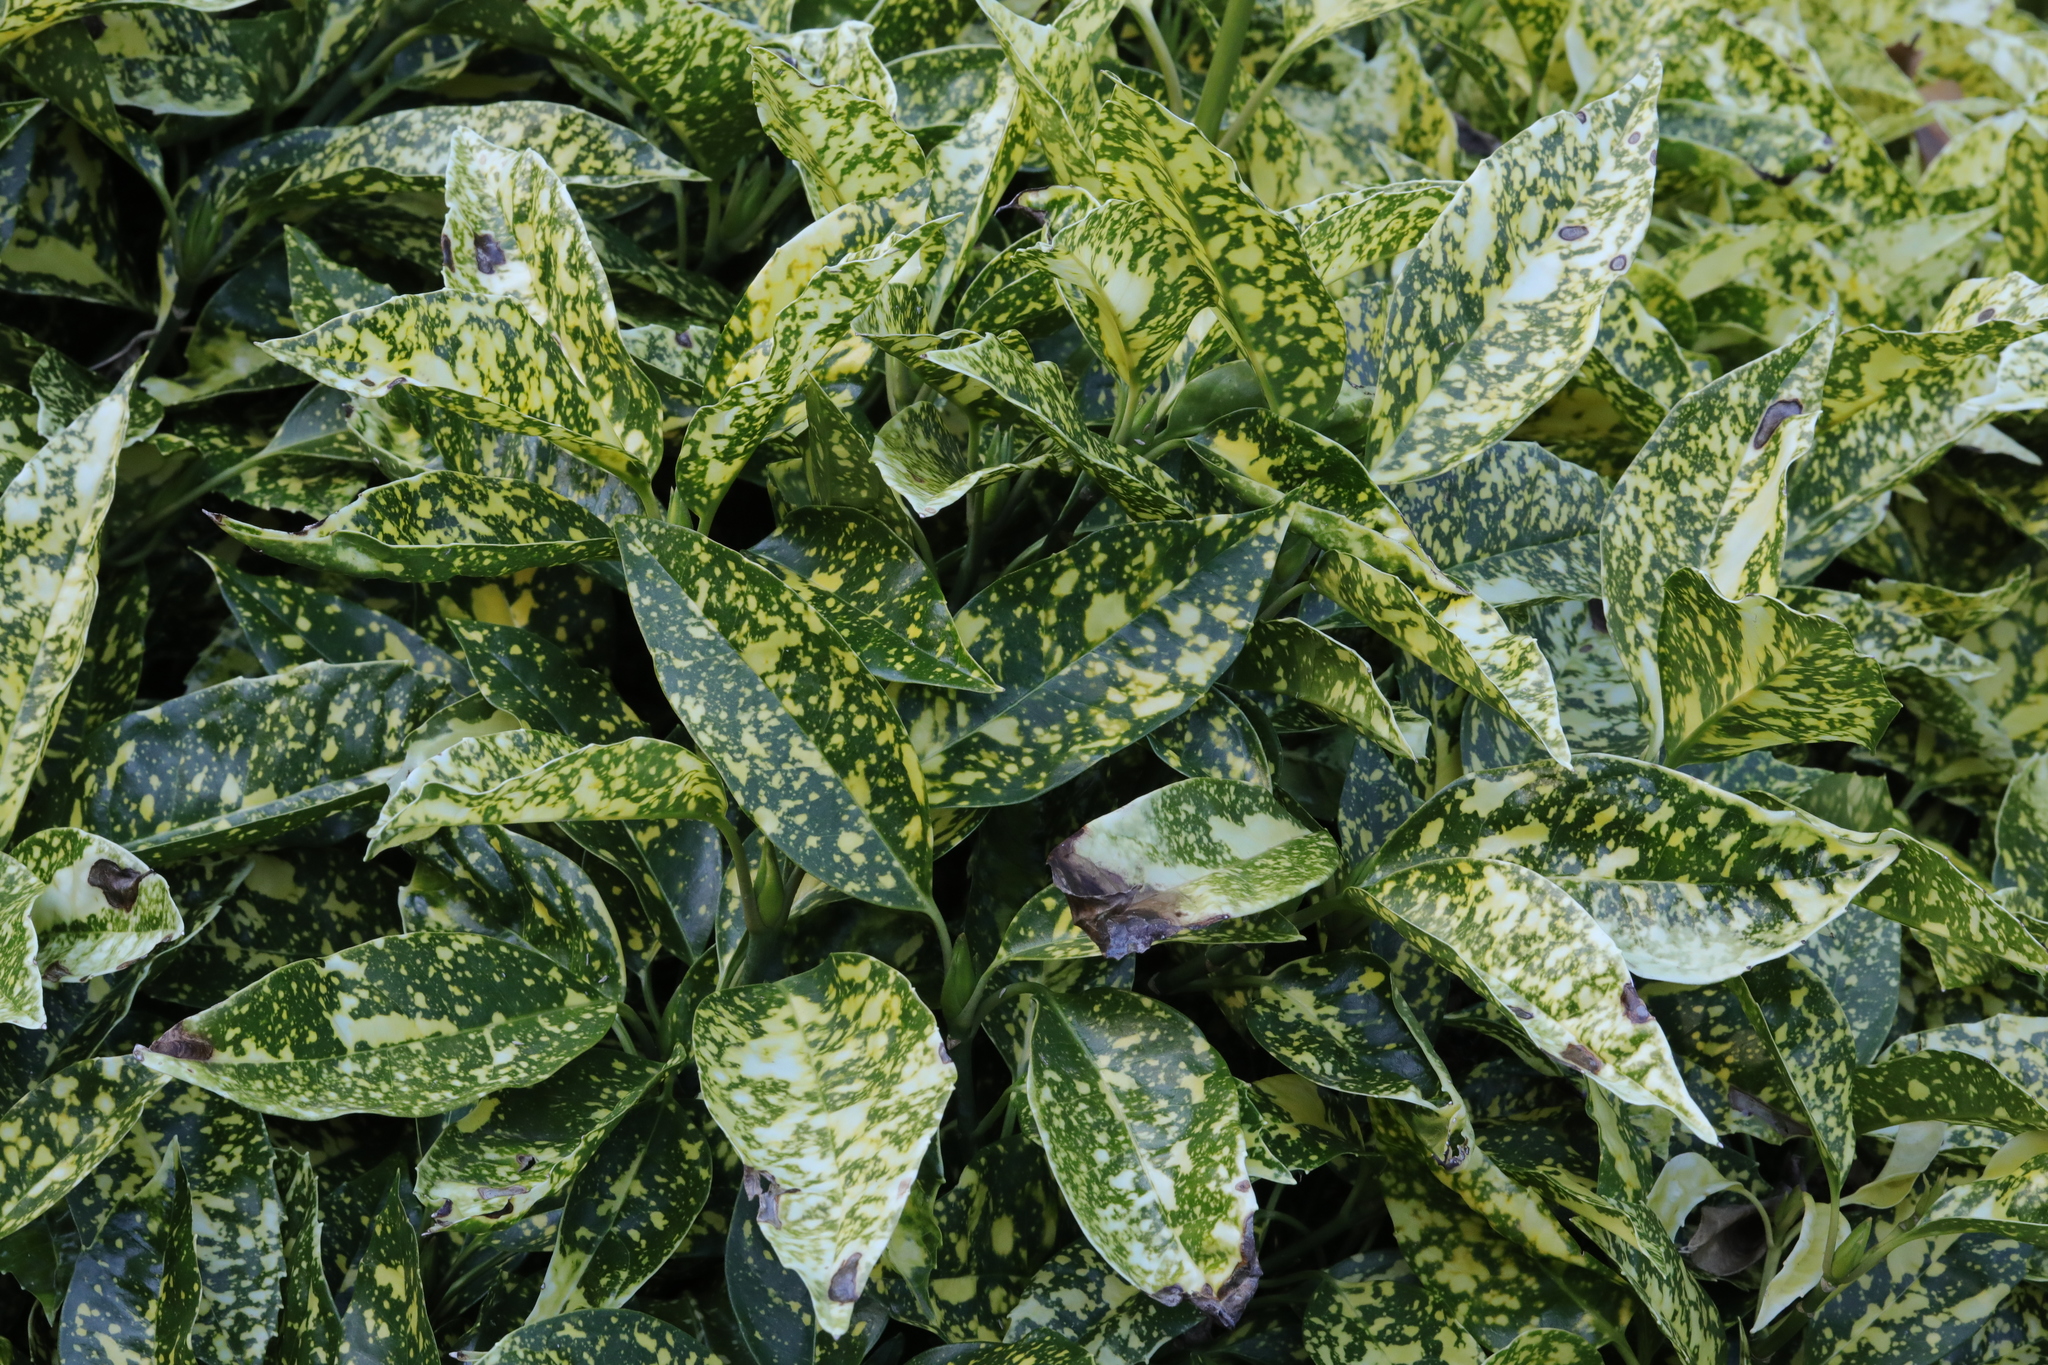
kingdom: Plantae
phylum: Tracheophyta
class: Magnoliopsida
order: Garryales
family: Garryaceae
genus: Aucuba
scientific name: Aucuba japonica
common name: Spotted-laurel
